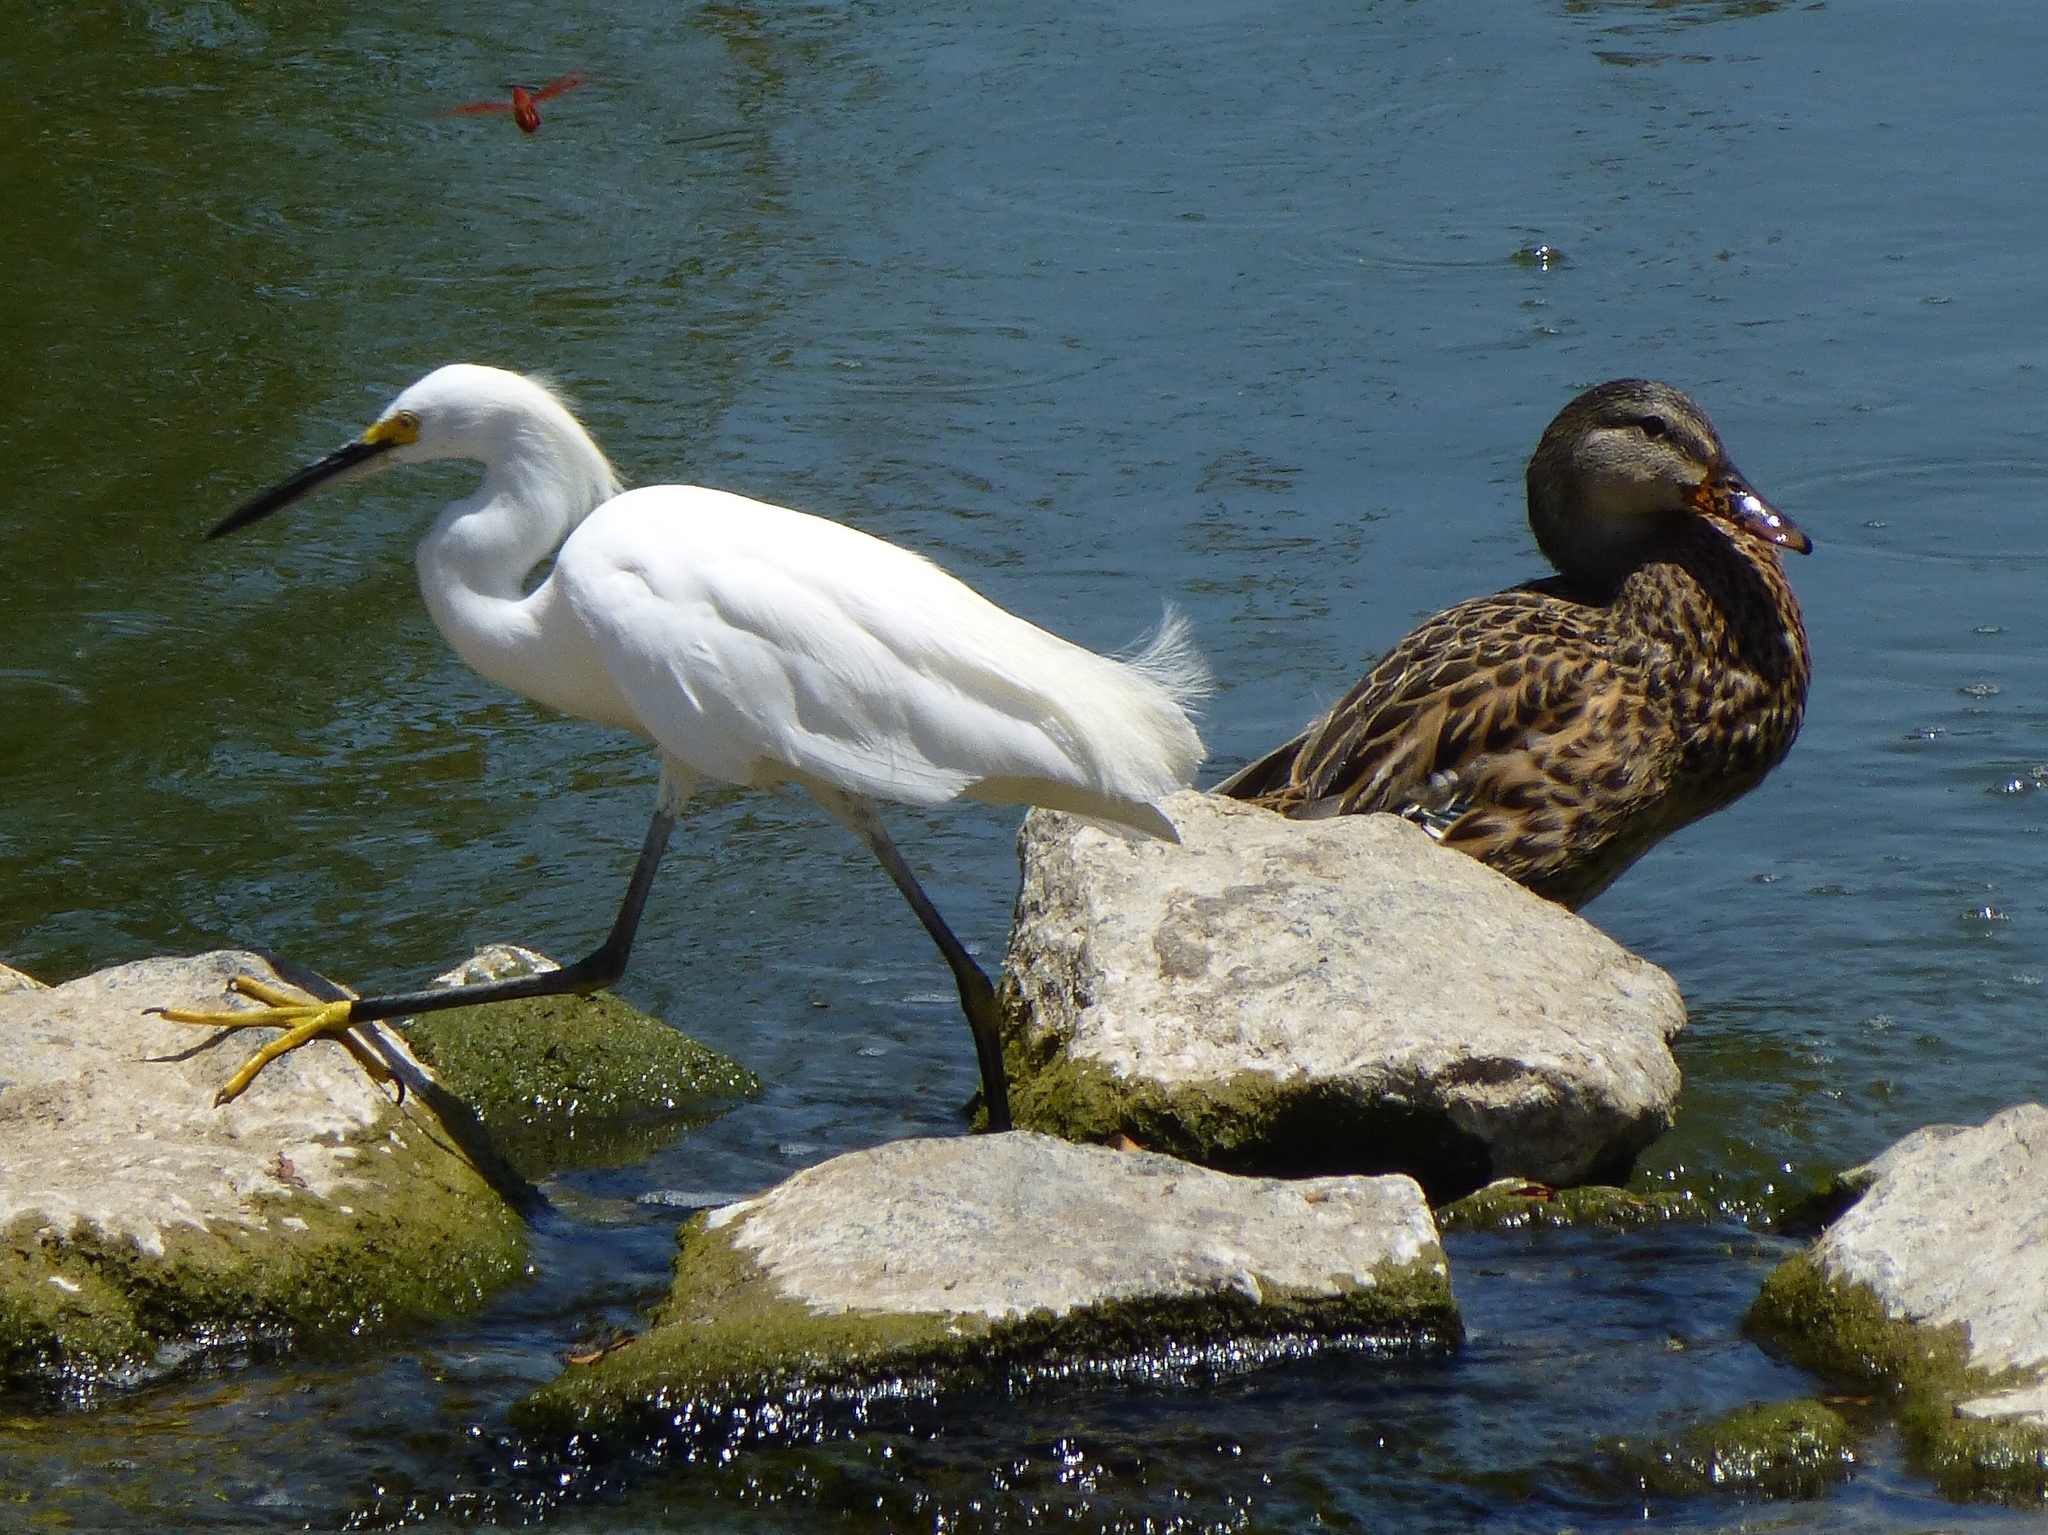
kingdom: Animalia
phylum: Chordata
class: Aves
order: Pelecaniformes
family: Ardeidae
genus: Egretta
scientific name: Egretta thula
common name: Snowy egret
